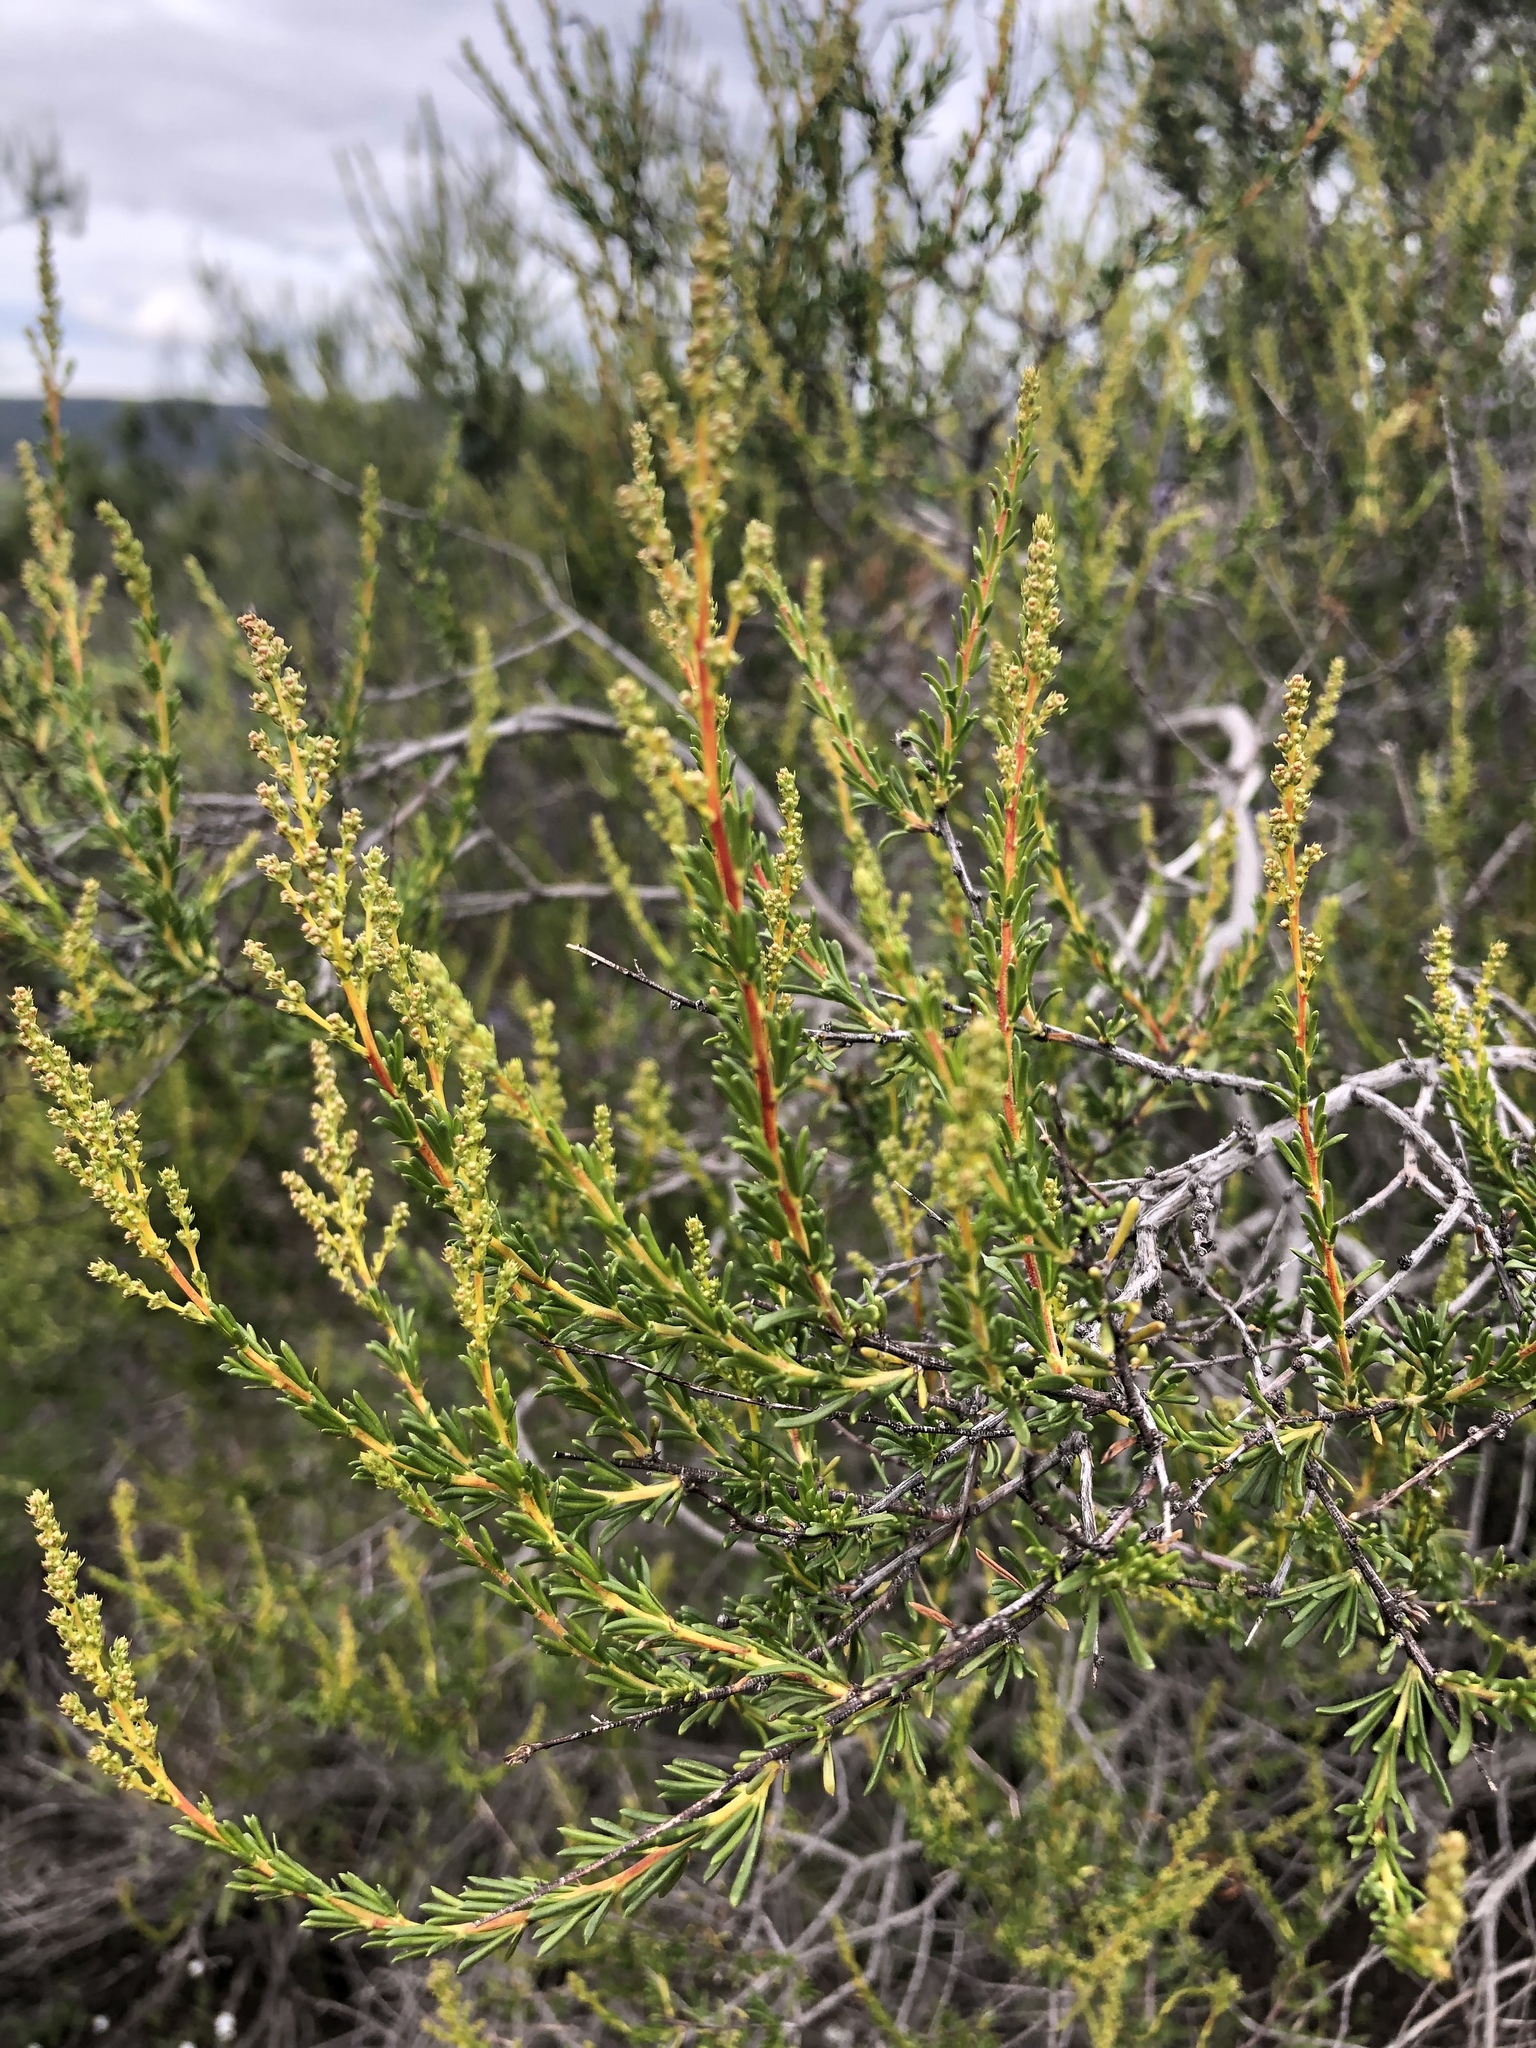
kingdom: Plantae
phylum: Tracheophyta
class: Magnoliopsida
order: Rosales
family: Rosaceae
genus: Adenostoma
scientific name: Adenostoma fasciculatum
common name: Chamise
